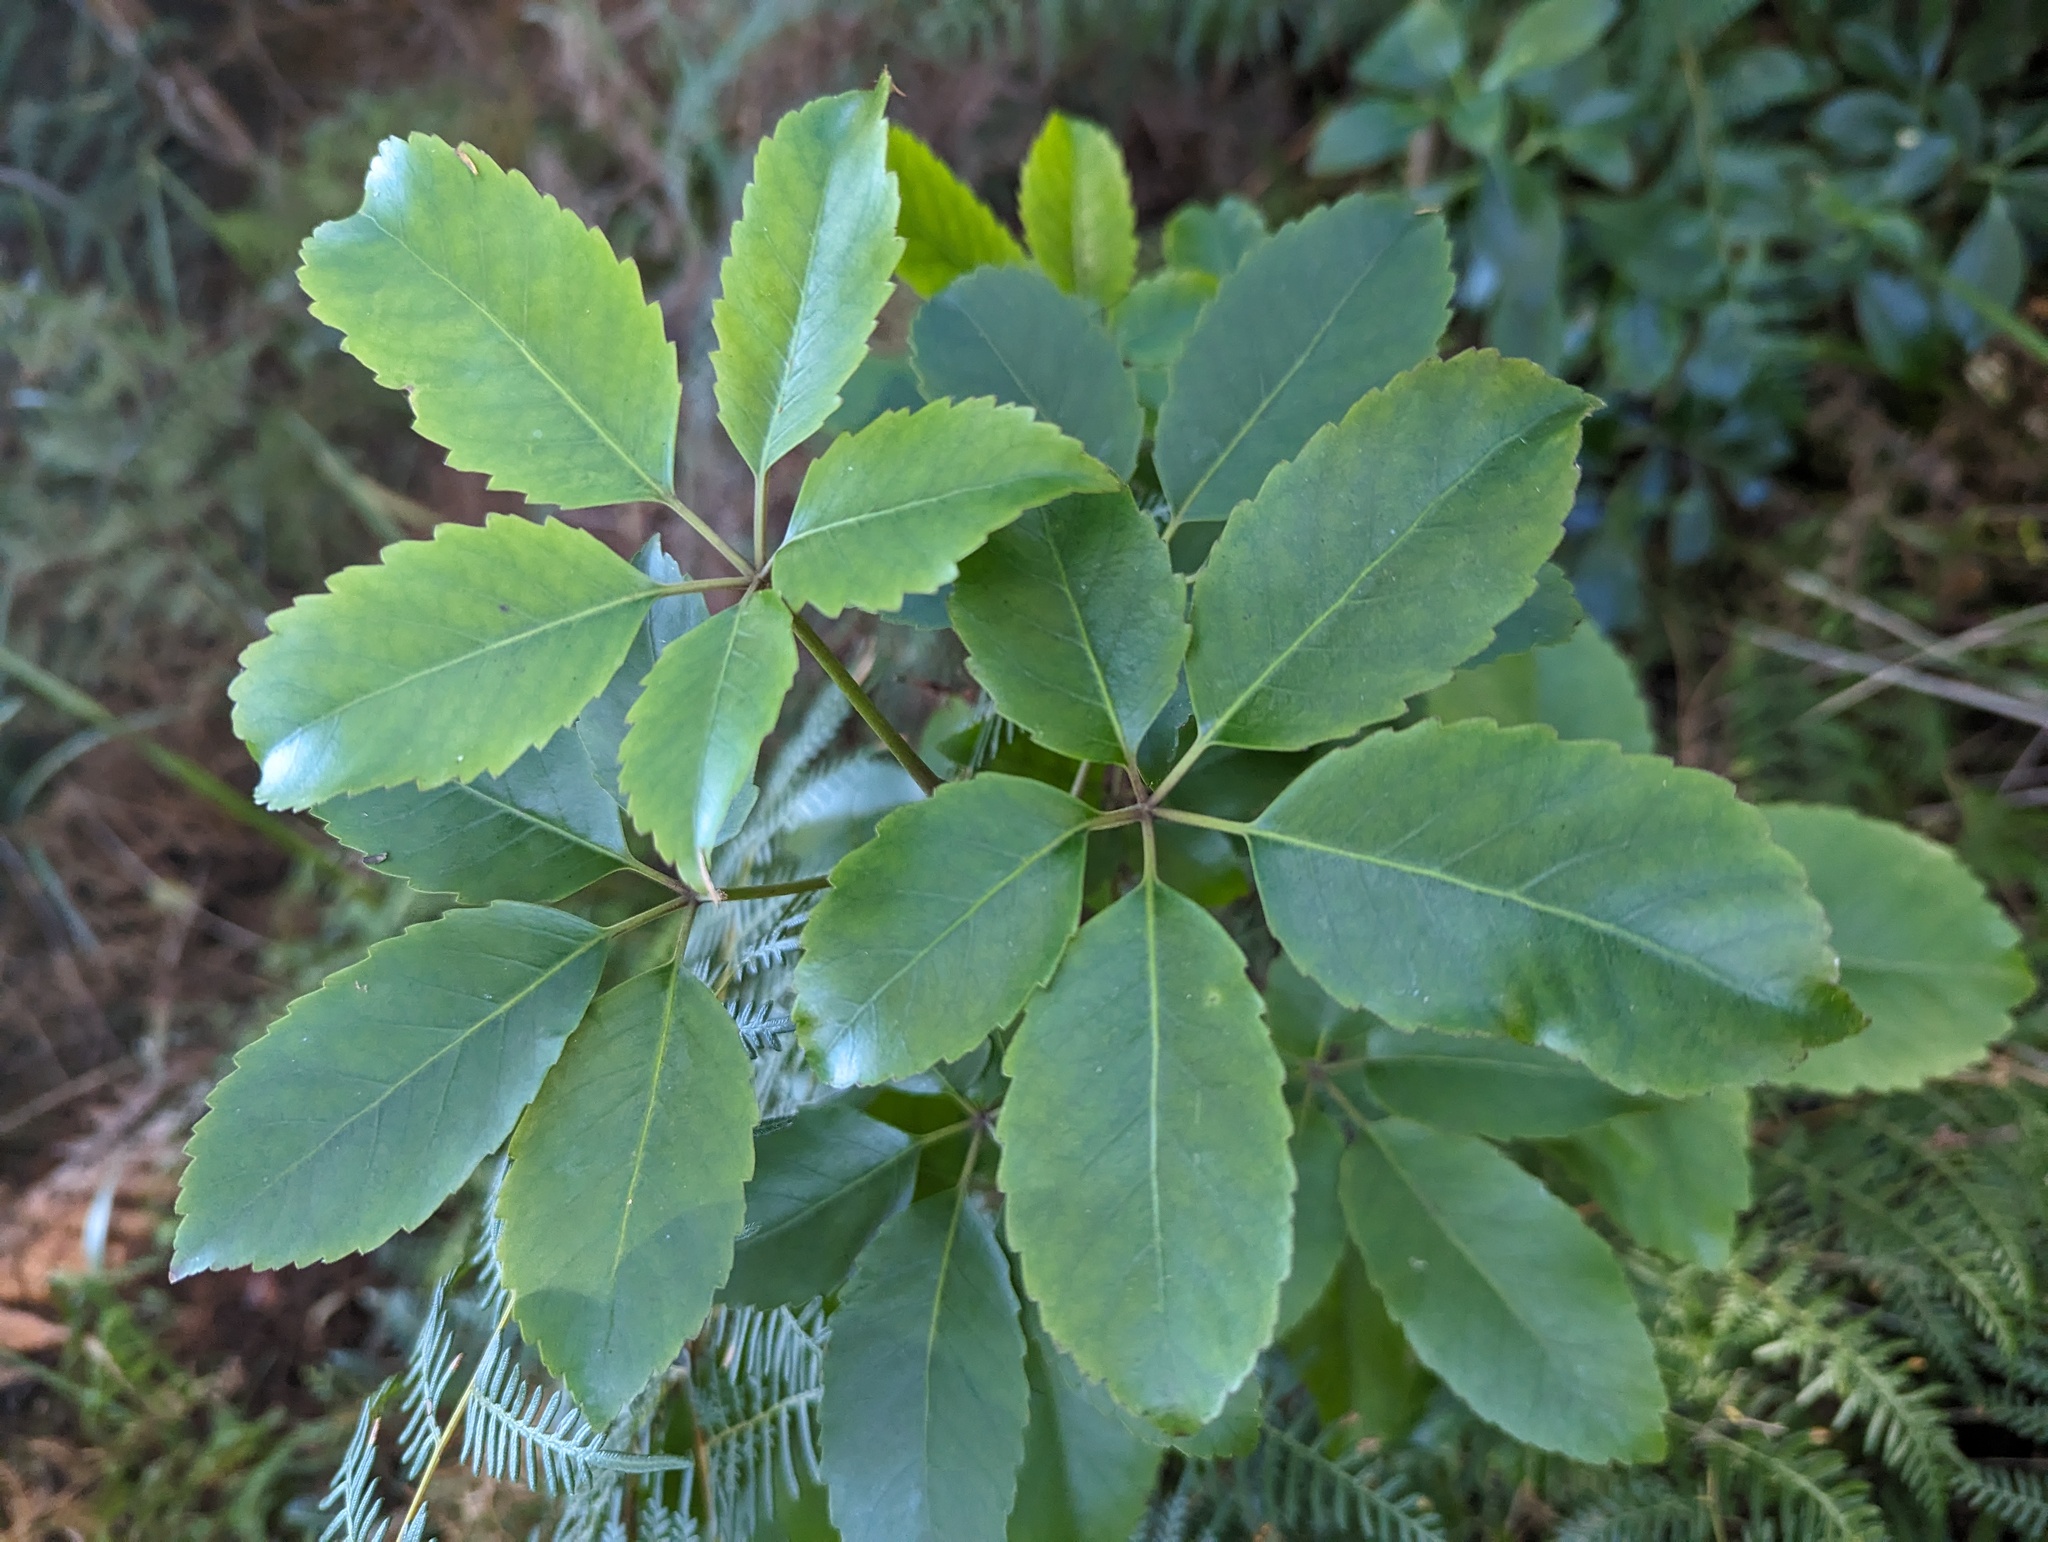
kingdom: Plantae
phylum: Tracheophyta
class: Magnoliopsida
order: Apiales
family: Araliaceae
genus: Neopanax
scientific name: Neopanax arboreus
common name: Five-fingers
